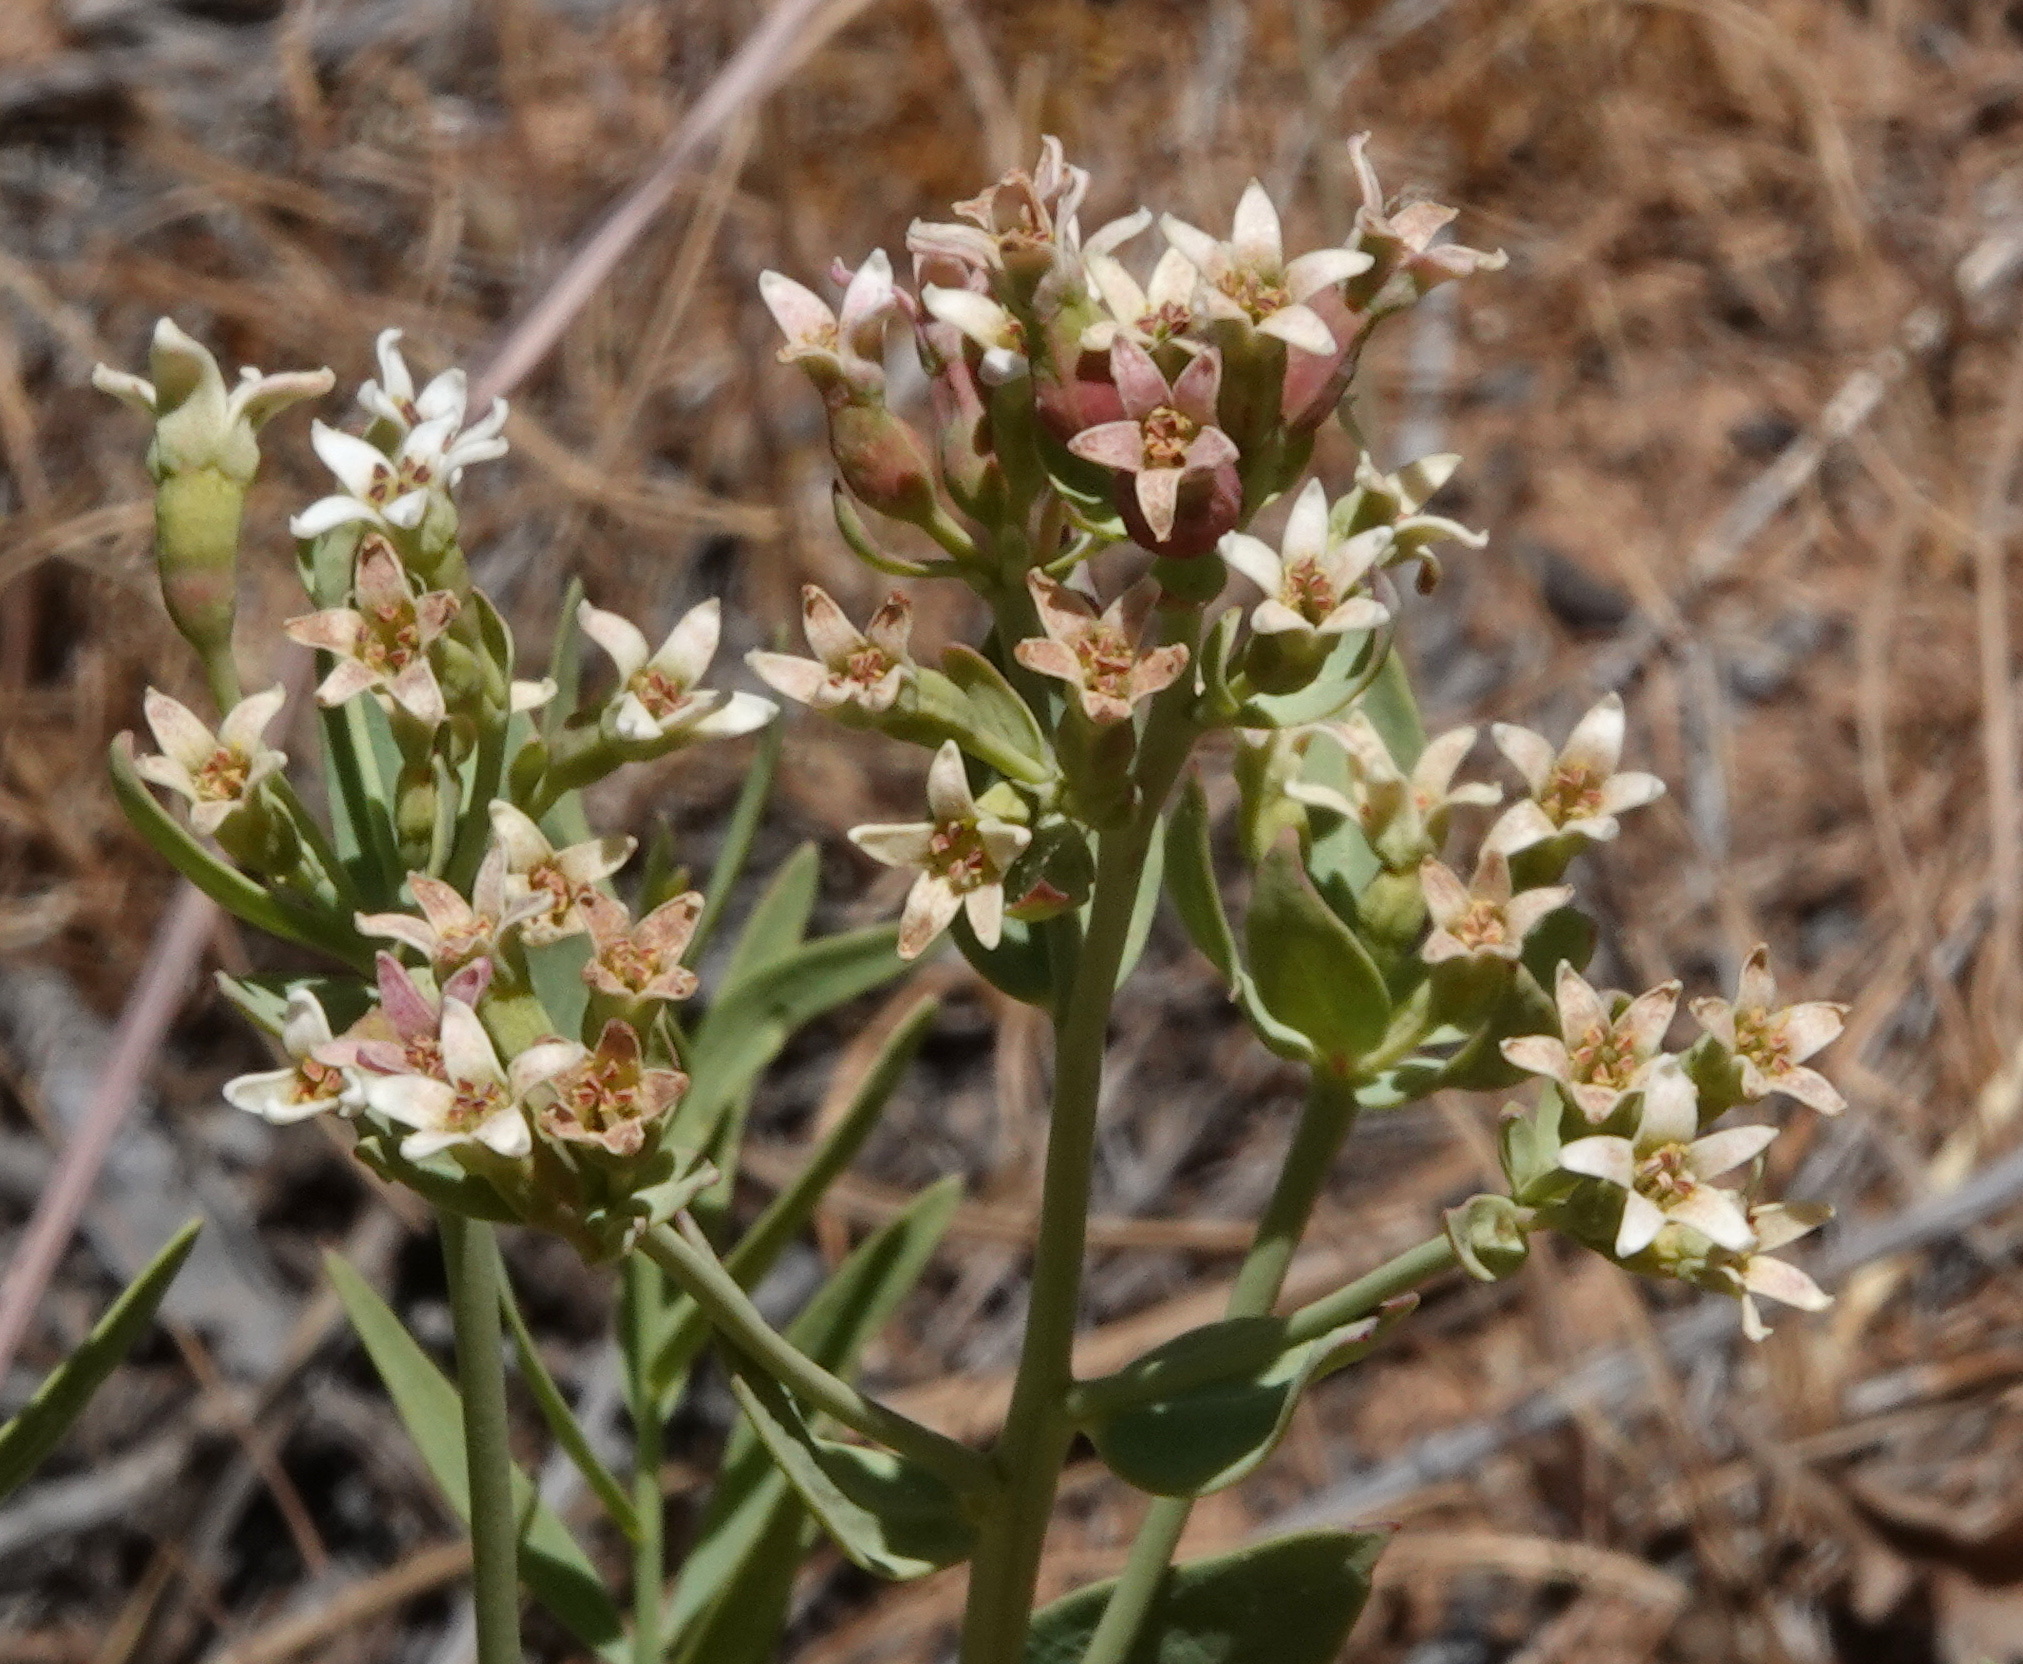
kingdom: Plantae
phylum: Tracheophyta
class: Magnoliopsida
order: Santalales
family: Comandraceae
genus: Comandra
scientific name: Comandra umbellata
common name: Bastard toadflax
